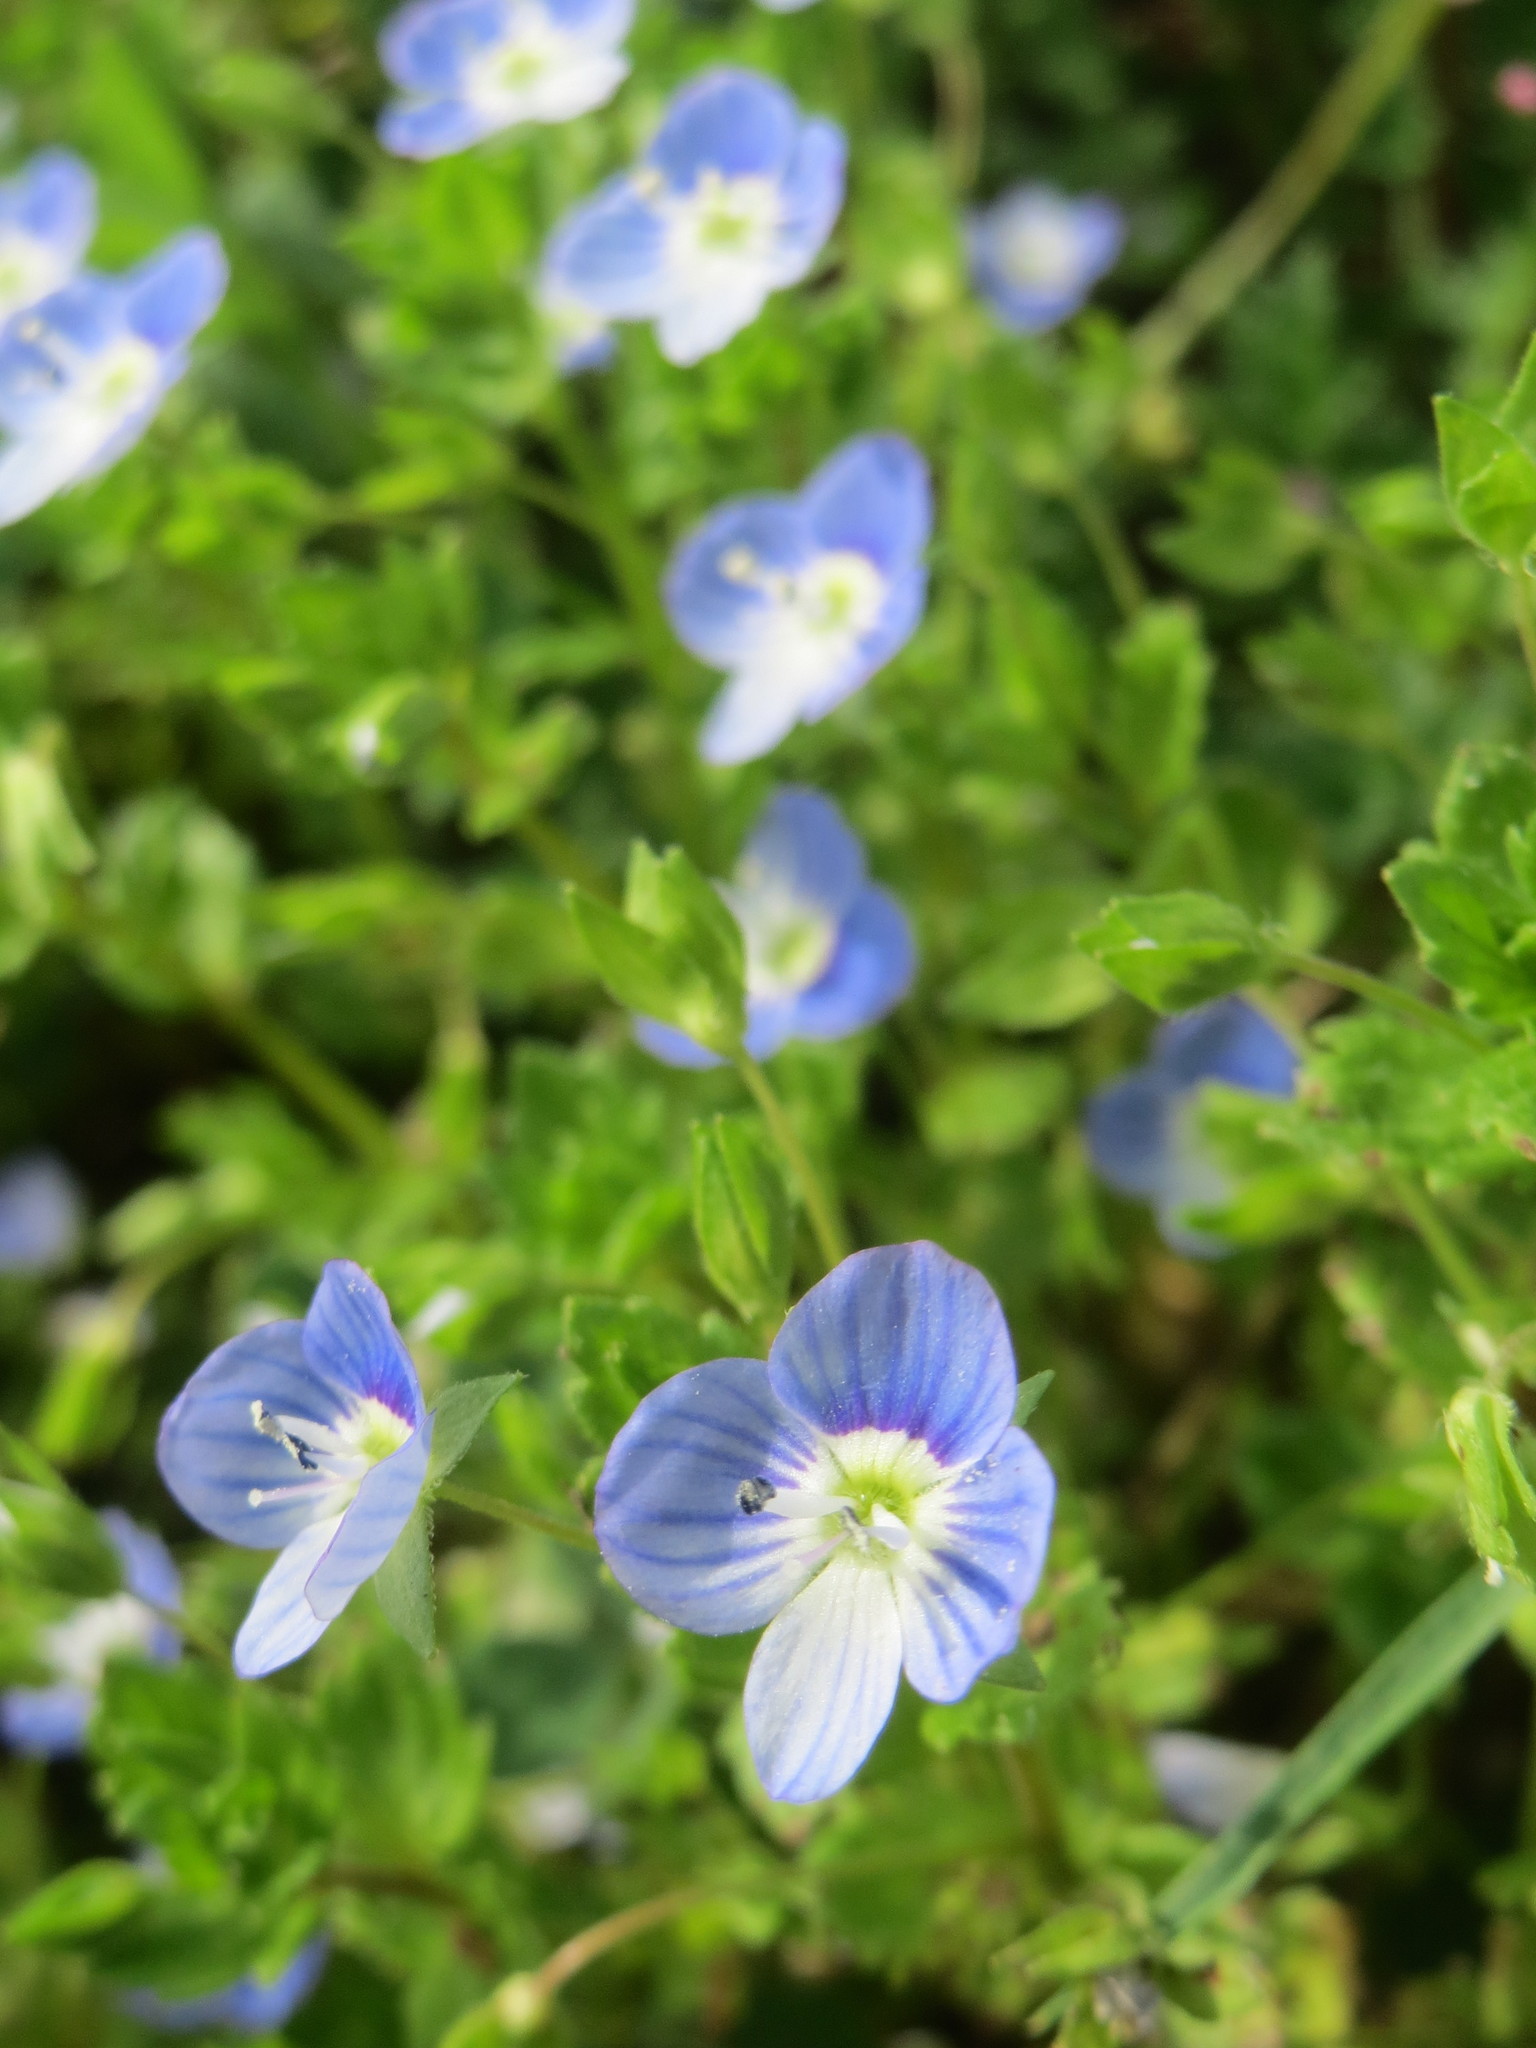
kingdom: Plantae
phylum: Tracheophyta
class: Magnoliopsida
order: Lamiales
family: Plantaginaceae
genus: Veronica
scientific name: Veronica persica
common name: Common field-speedwell
